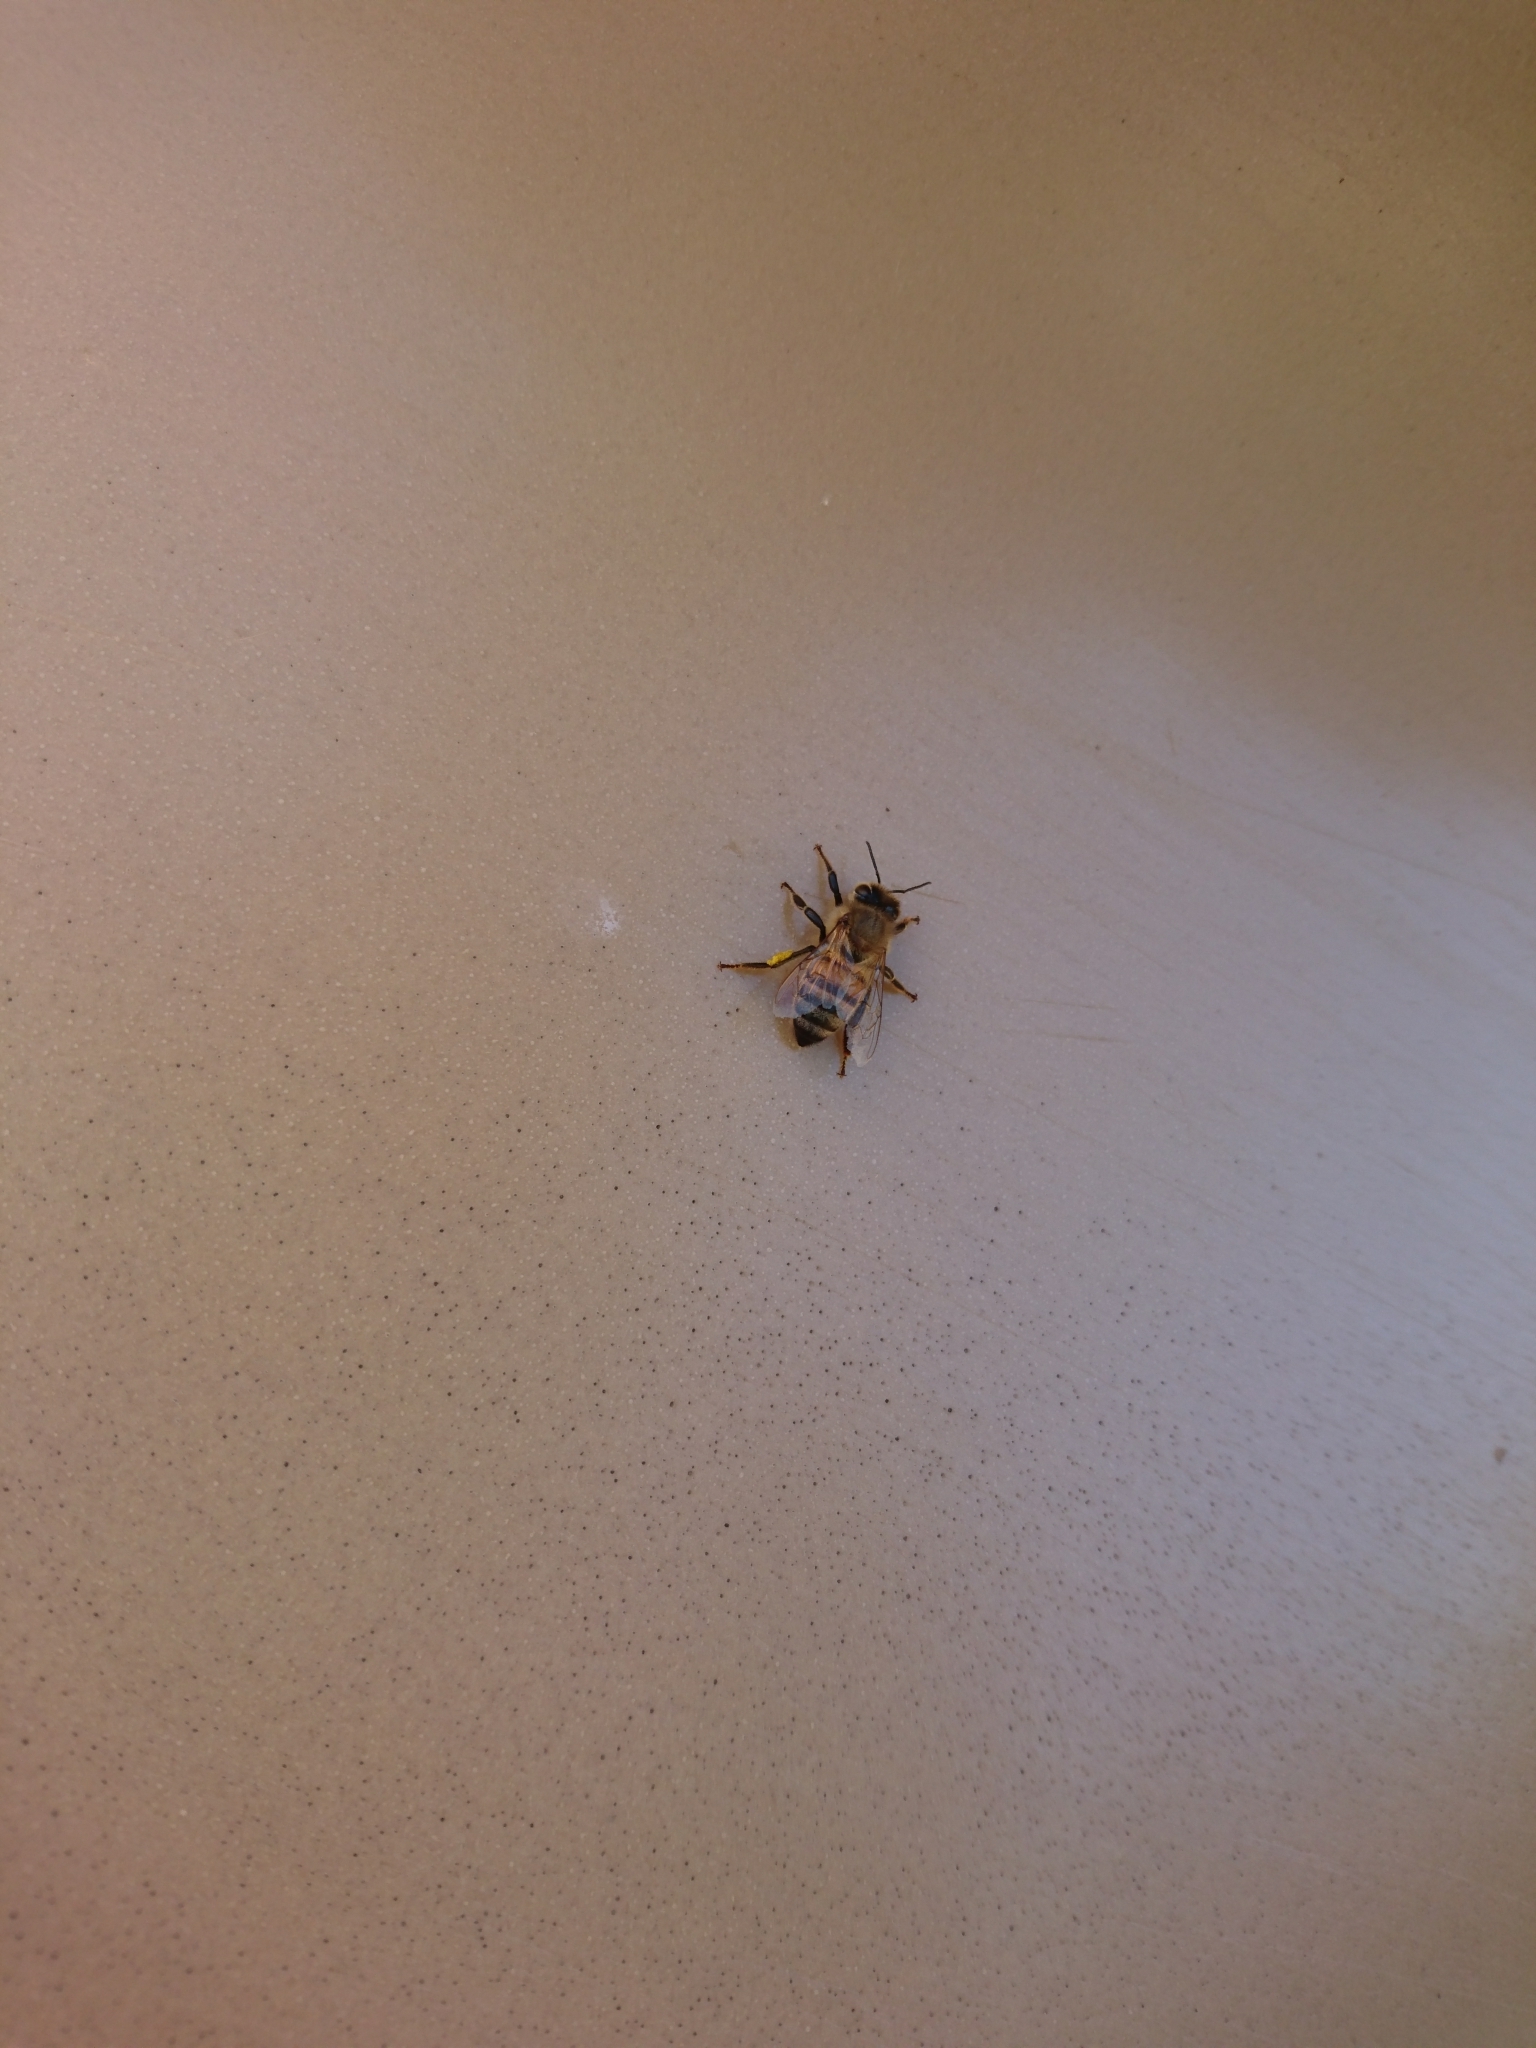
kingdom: Animalia
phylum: Arthropoda
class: Insecta
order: Hymenoptera
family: Apidae
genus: Apis
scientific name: Apis mellifera
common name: Honey bee
